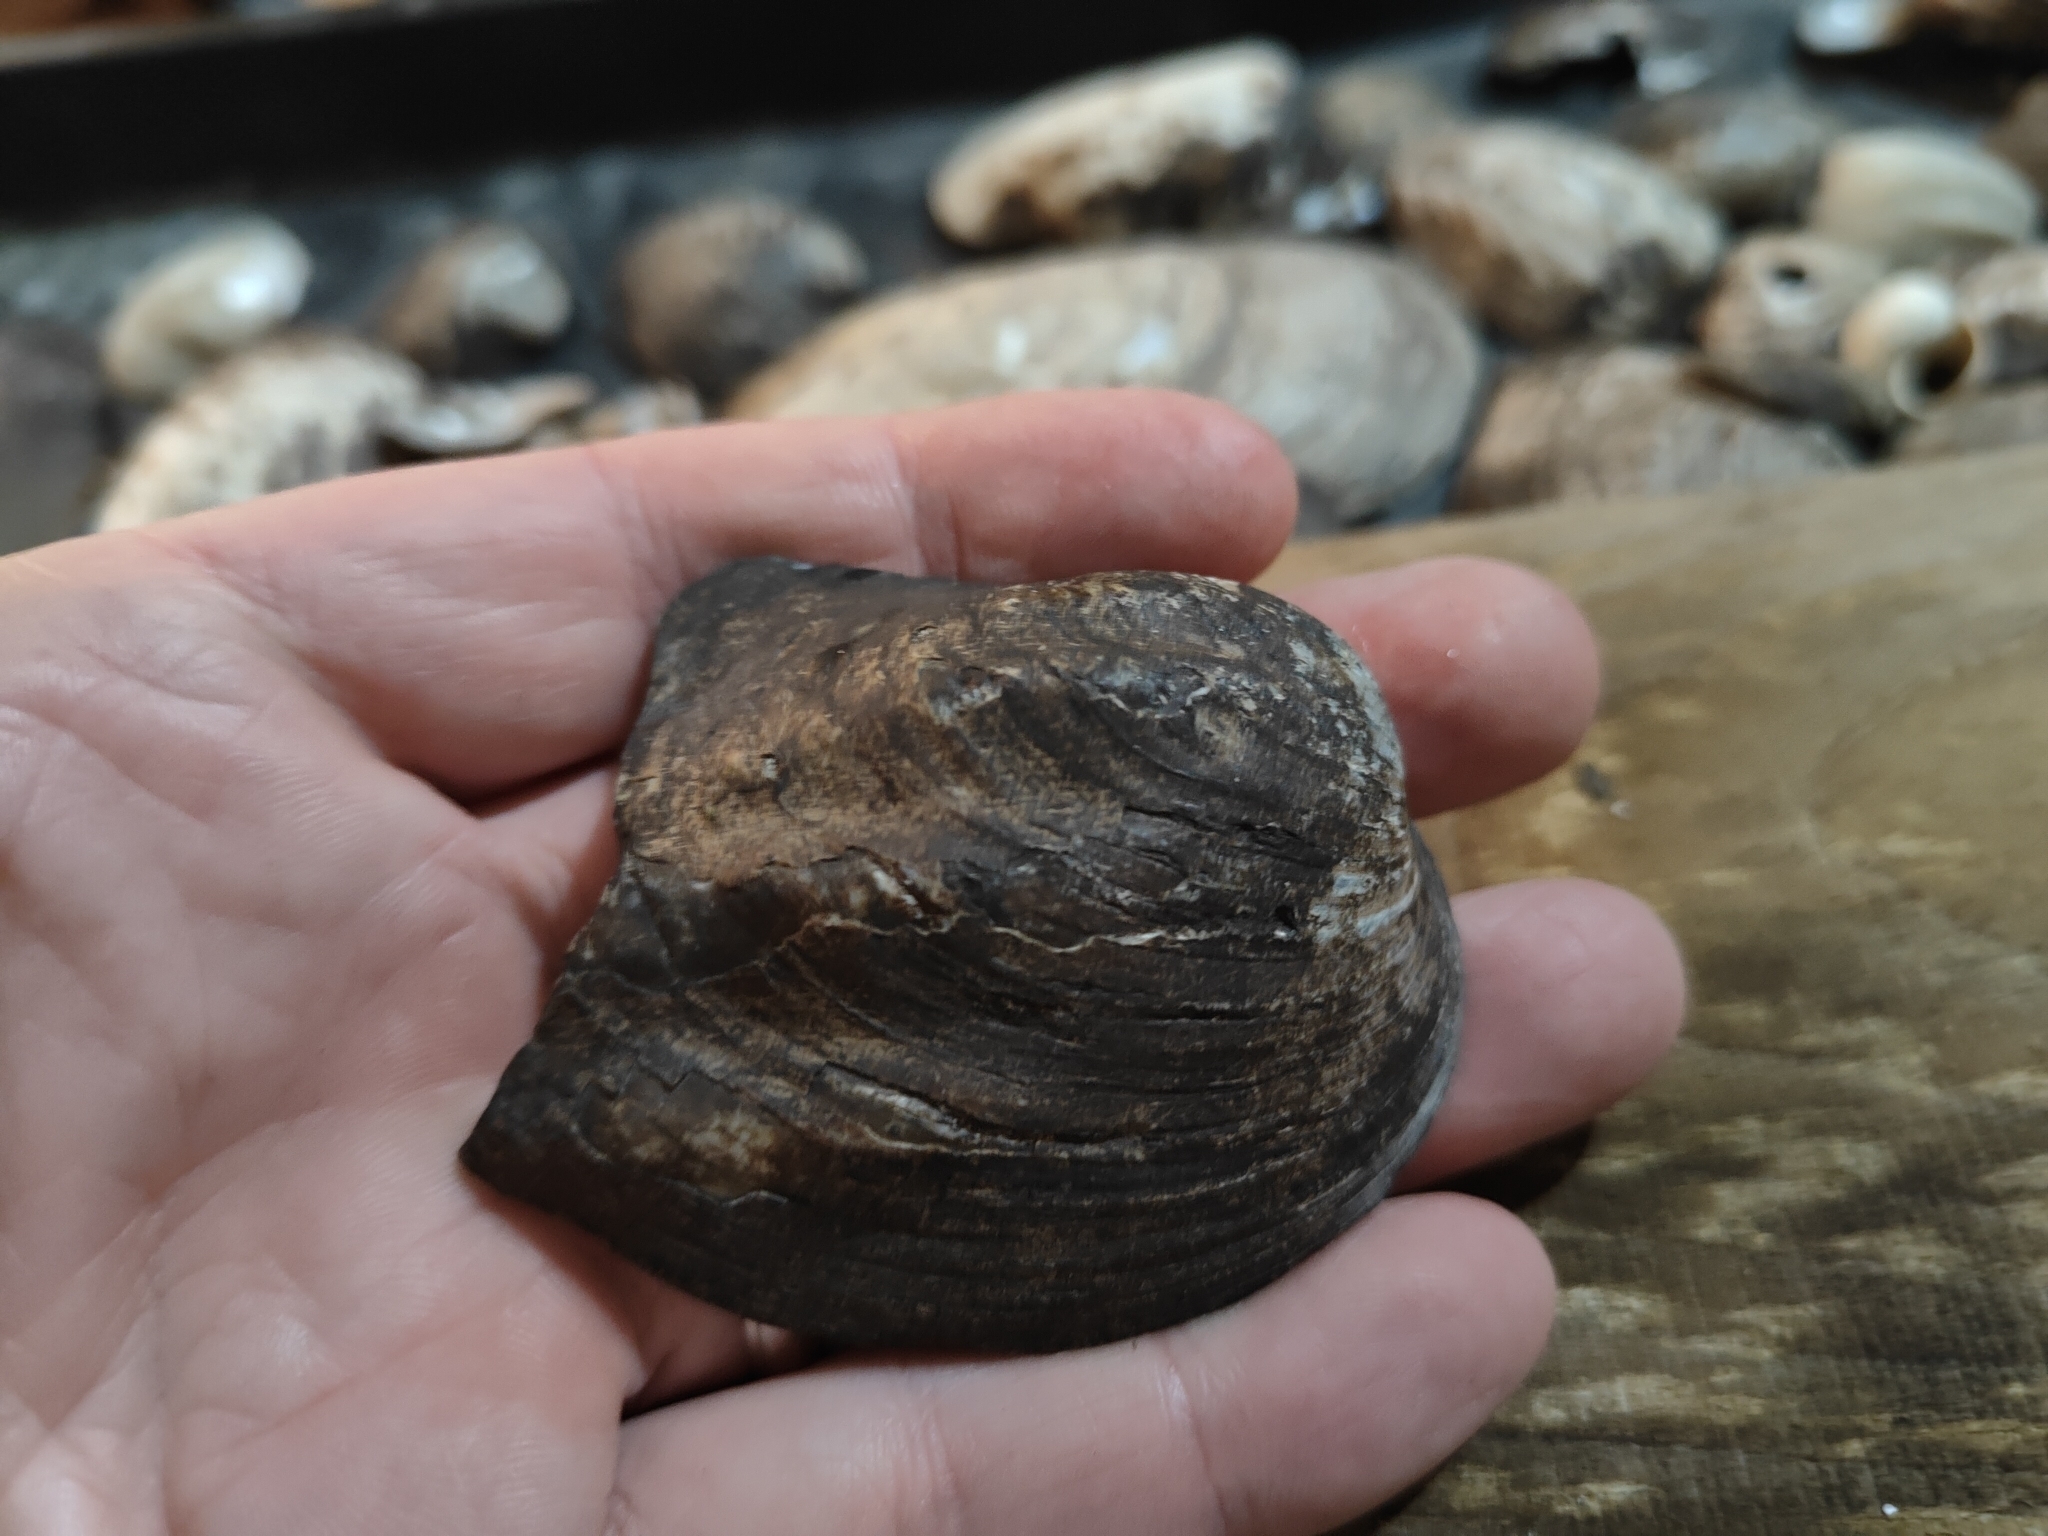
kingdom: Animalia
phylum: Mollusca
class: Bivalvia
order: Unionida
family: Unionidae
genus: Amblema
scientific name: Amblema plicata
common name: Threeridge
